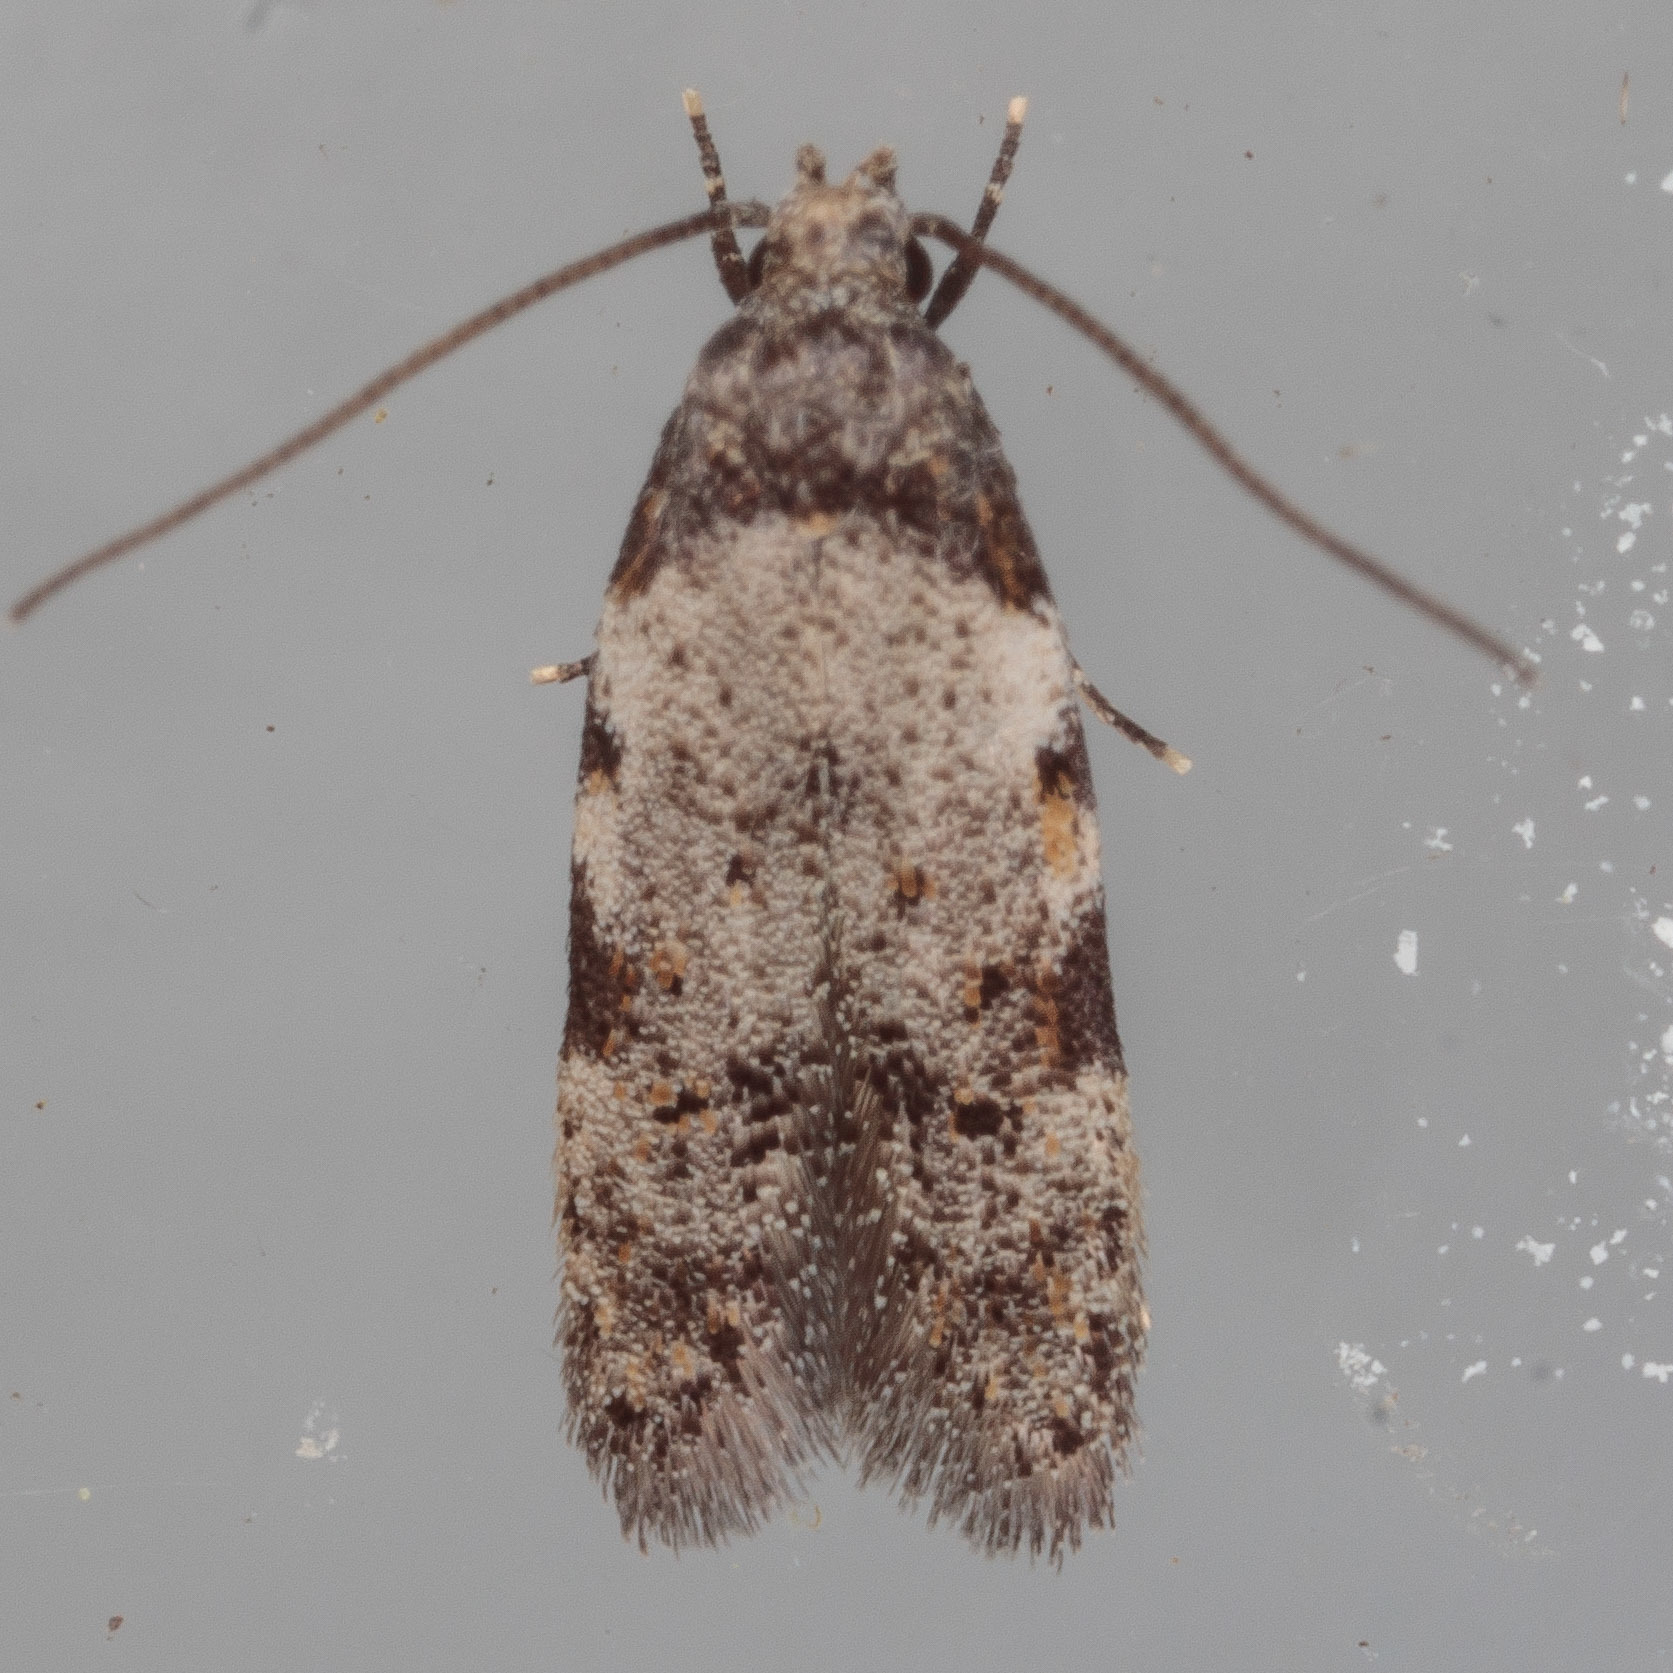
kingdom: Animalia
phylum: Arthropoda
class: Insecta
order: Lepidoptera
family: Autostichidae
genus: Taygete
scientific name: Taygete attributella
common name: Triangle-marked twirler moth
